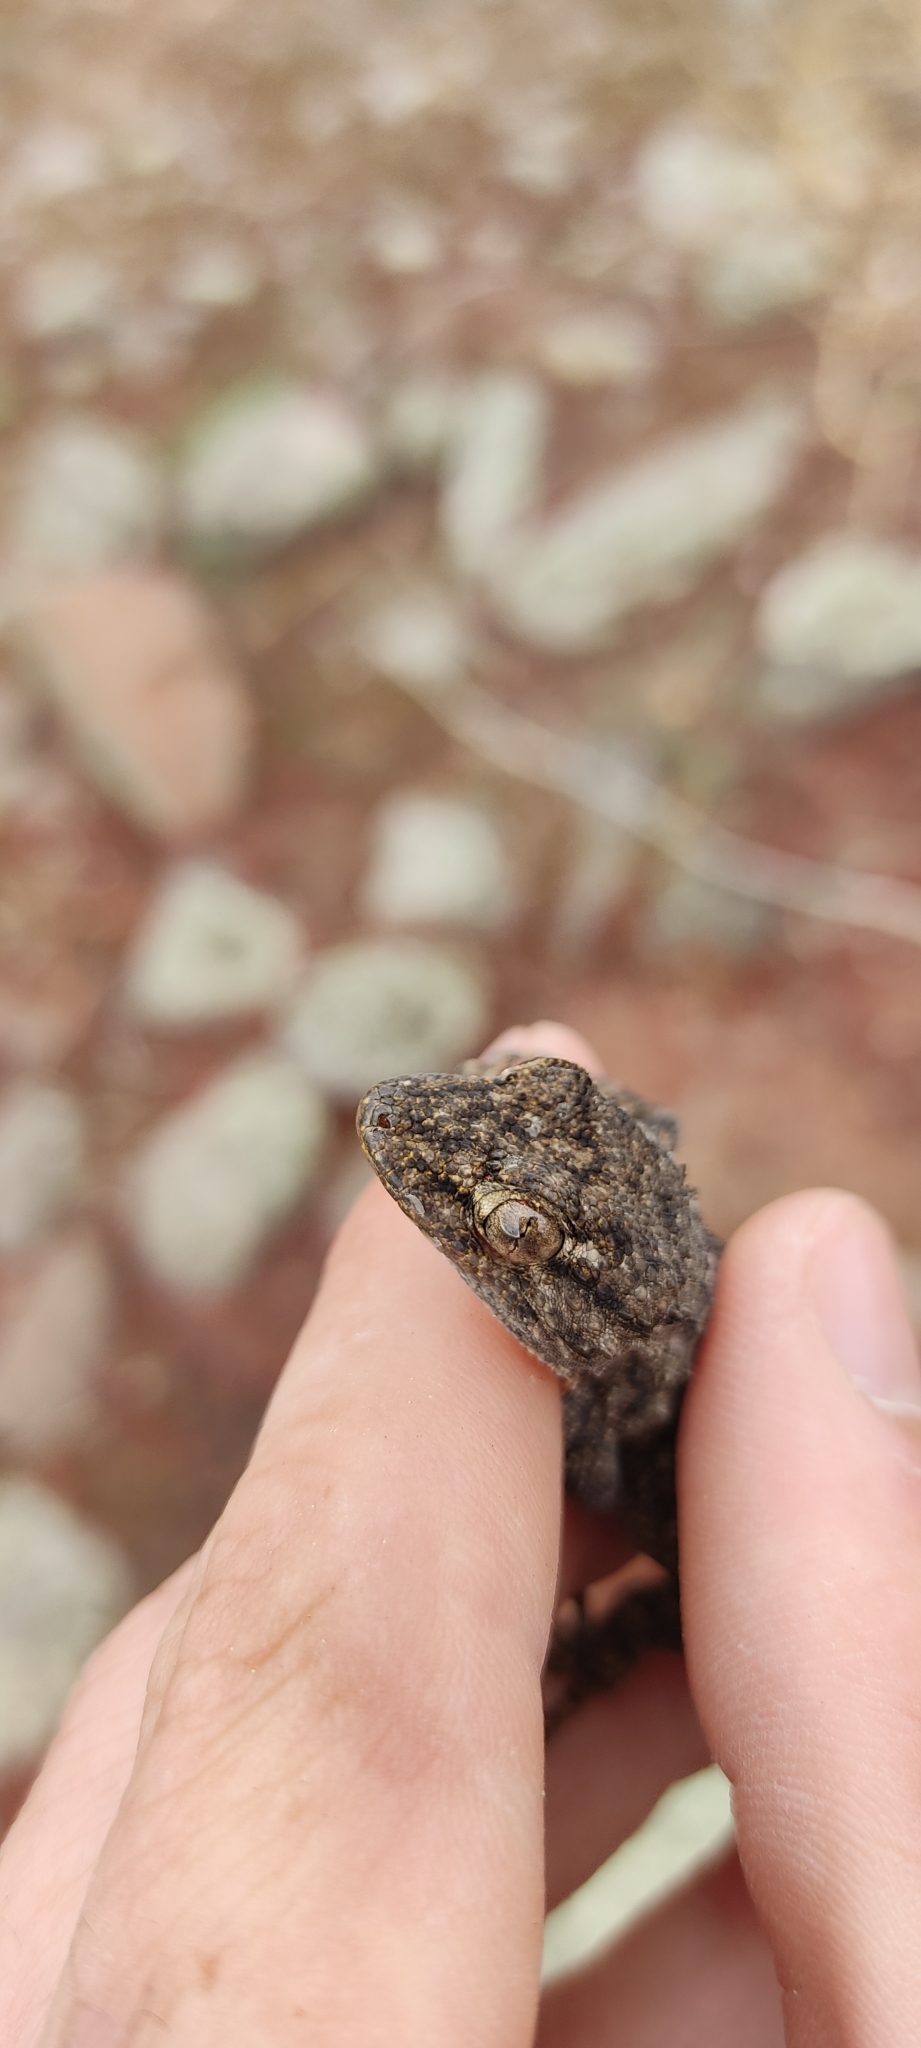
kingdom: Animalia
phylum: Chordata
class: Squamata
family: Phyllodactylidae
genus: Tarentola
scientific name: Tarentola mauritanica
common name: Moorish gecko
